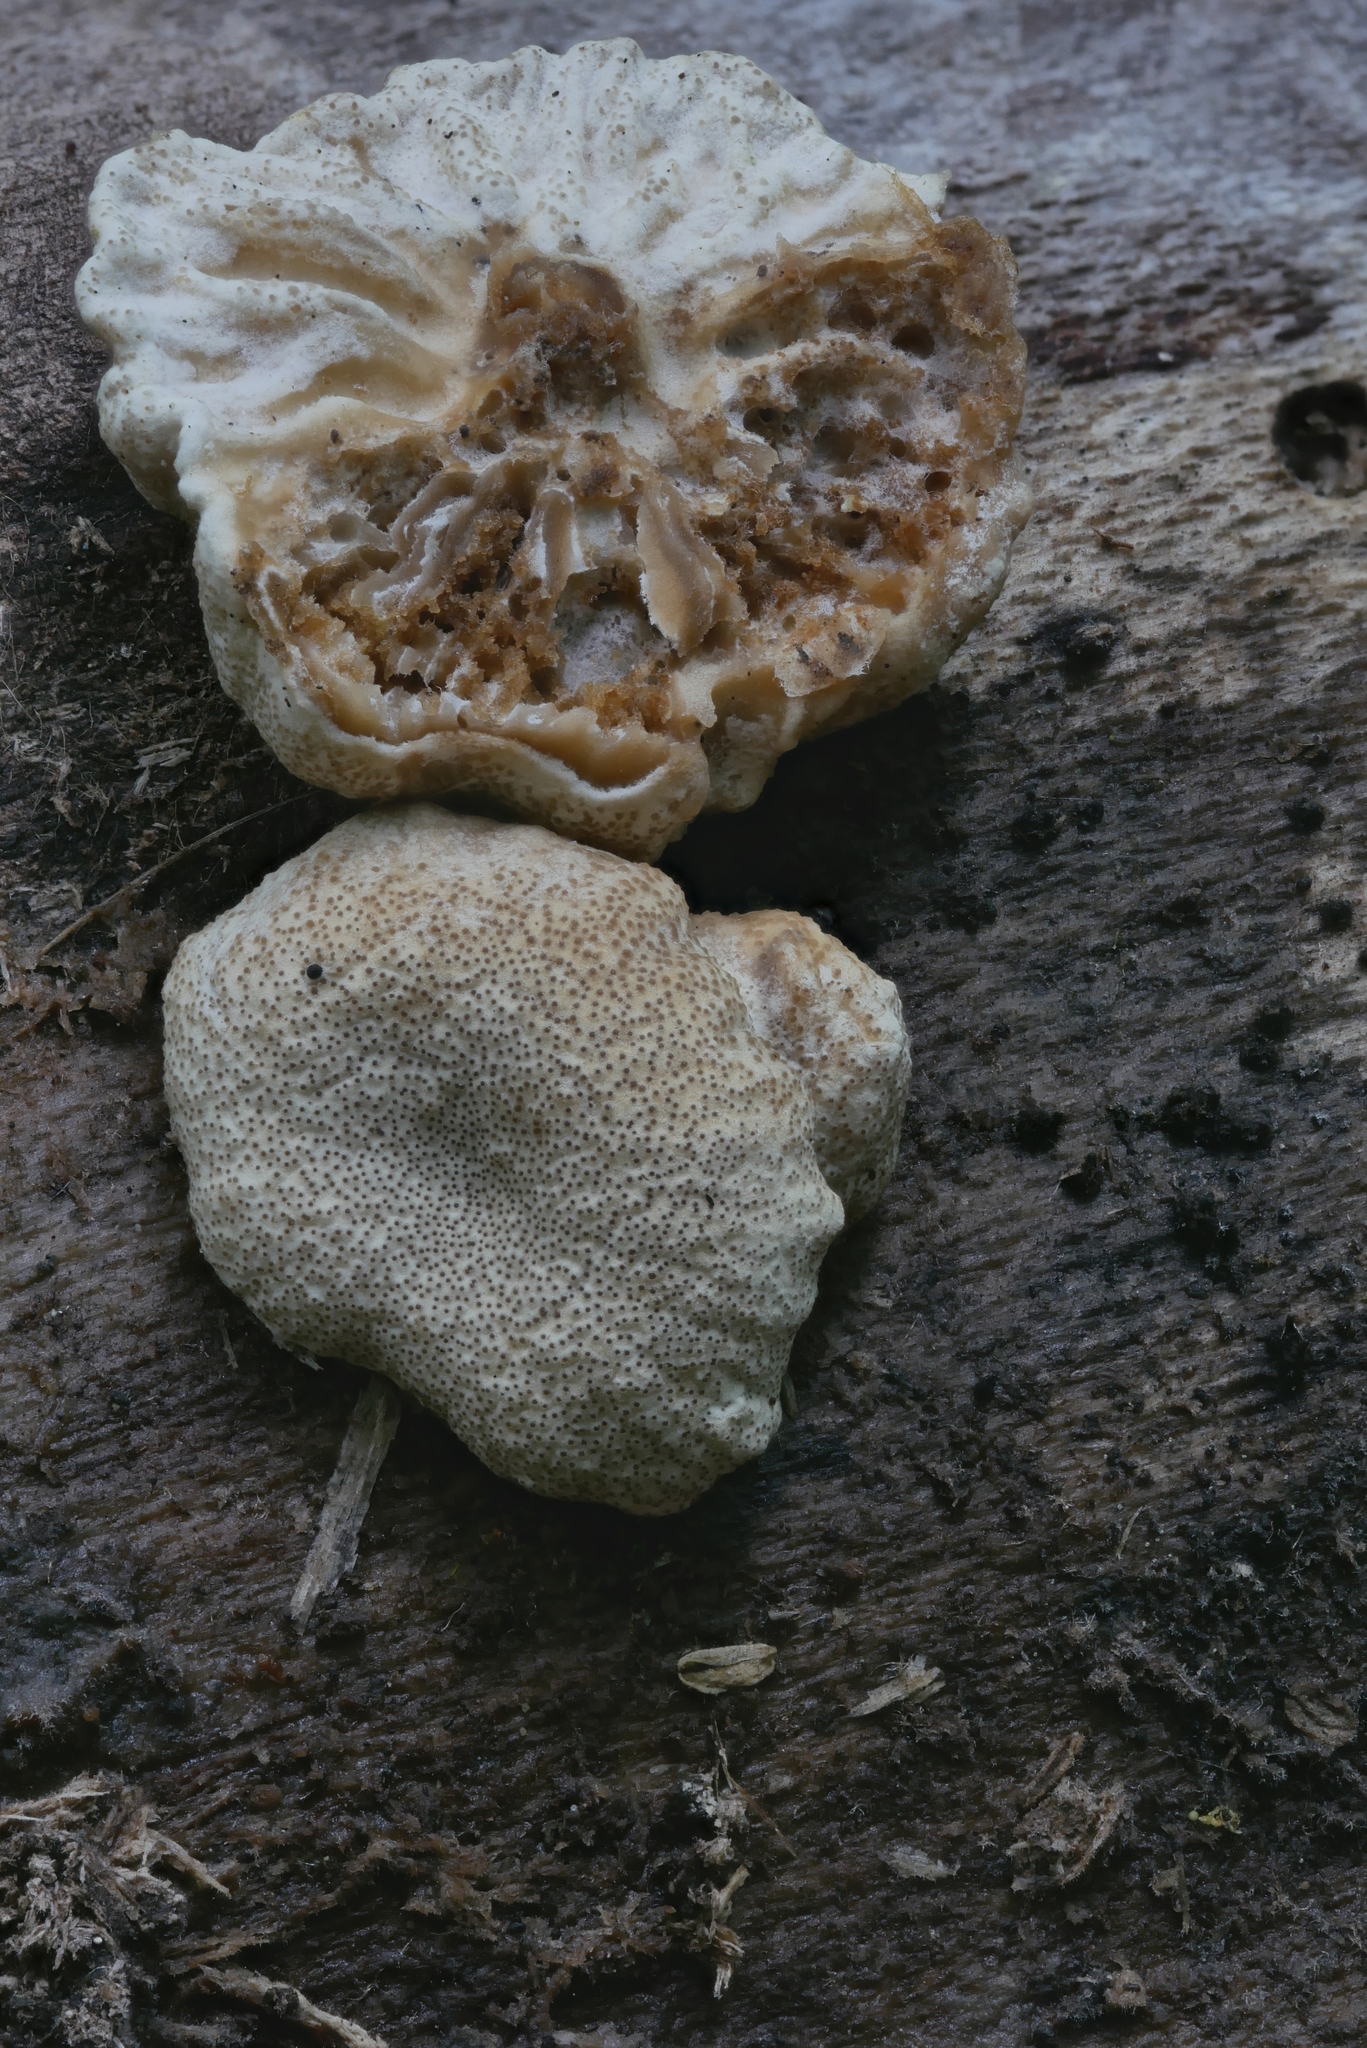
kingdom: Fungi
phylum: Ascomycota
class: Sordariomycetes
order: Hypocreales
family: Bionectriaceae
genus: Nectriopsis
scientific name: Nectriopsis tremellicola
